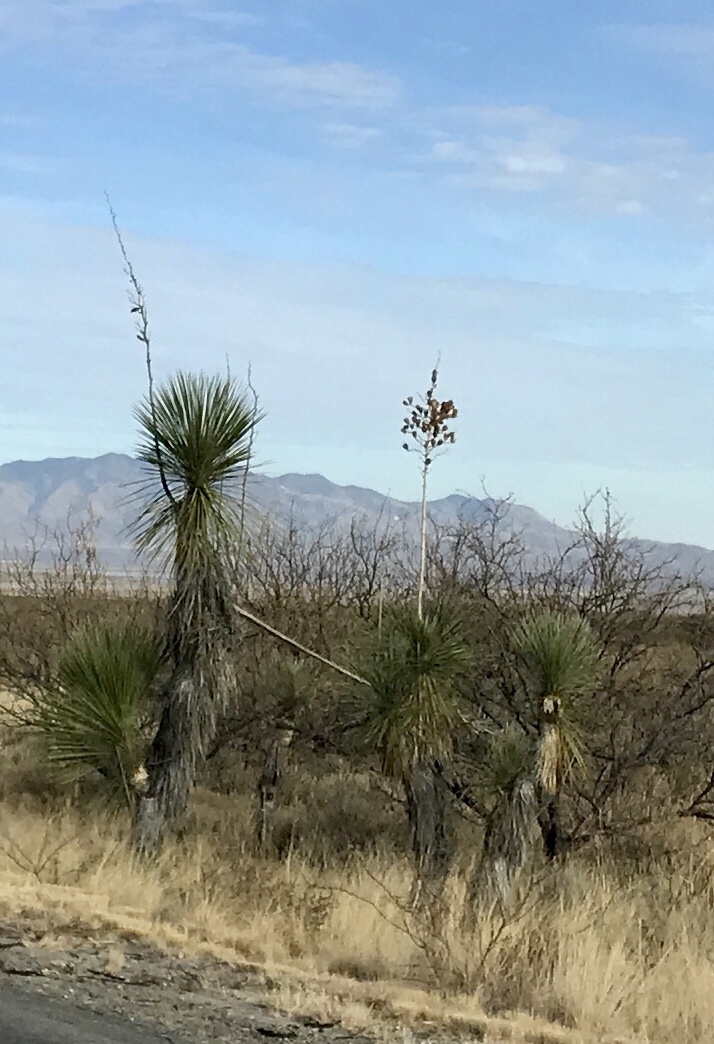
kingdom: Plantae
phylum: Tracheophyta
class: Liliopsida
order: Asparagales
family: Asparagaceae
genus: Yucca
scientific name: Yucca elata
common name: Palmella
